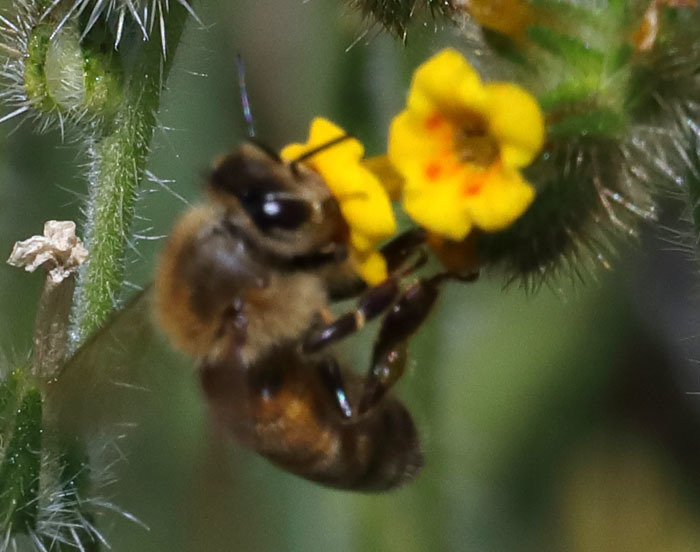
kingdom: Animalia
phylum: Arthropoda
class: Insecta
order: Hymenoptera
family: Apidae
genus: Apis
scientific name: Apis mellifera
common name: Honey bee
